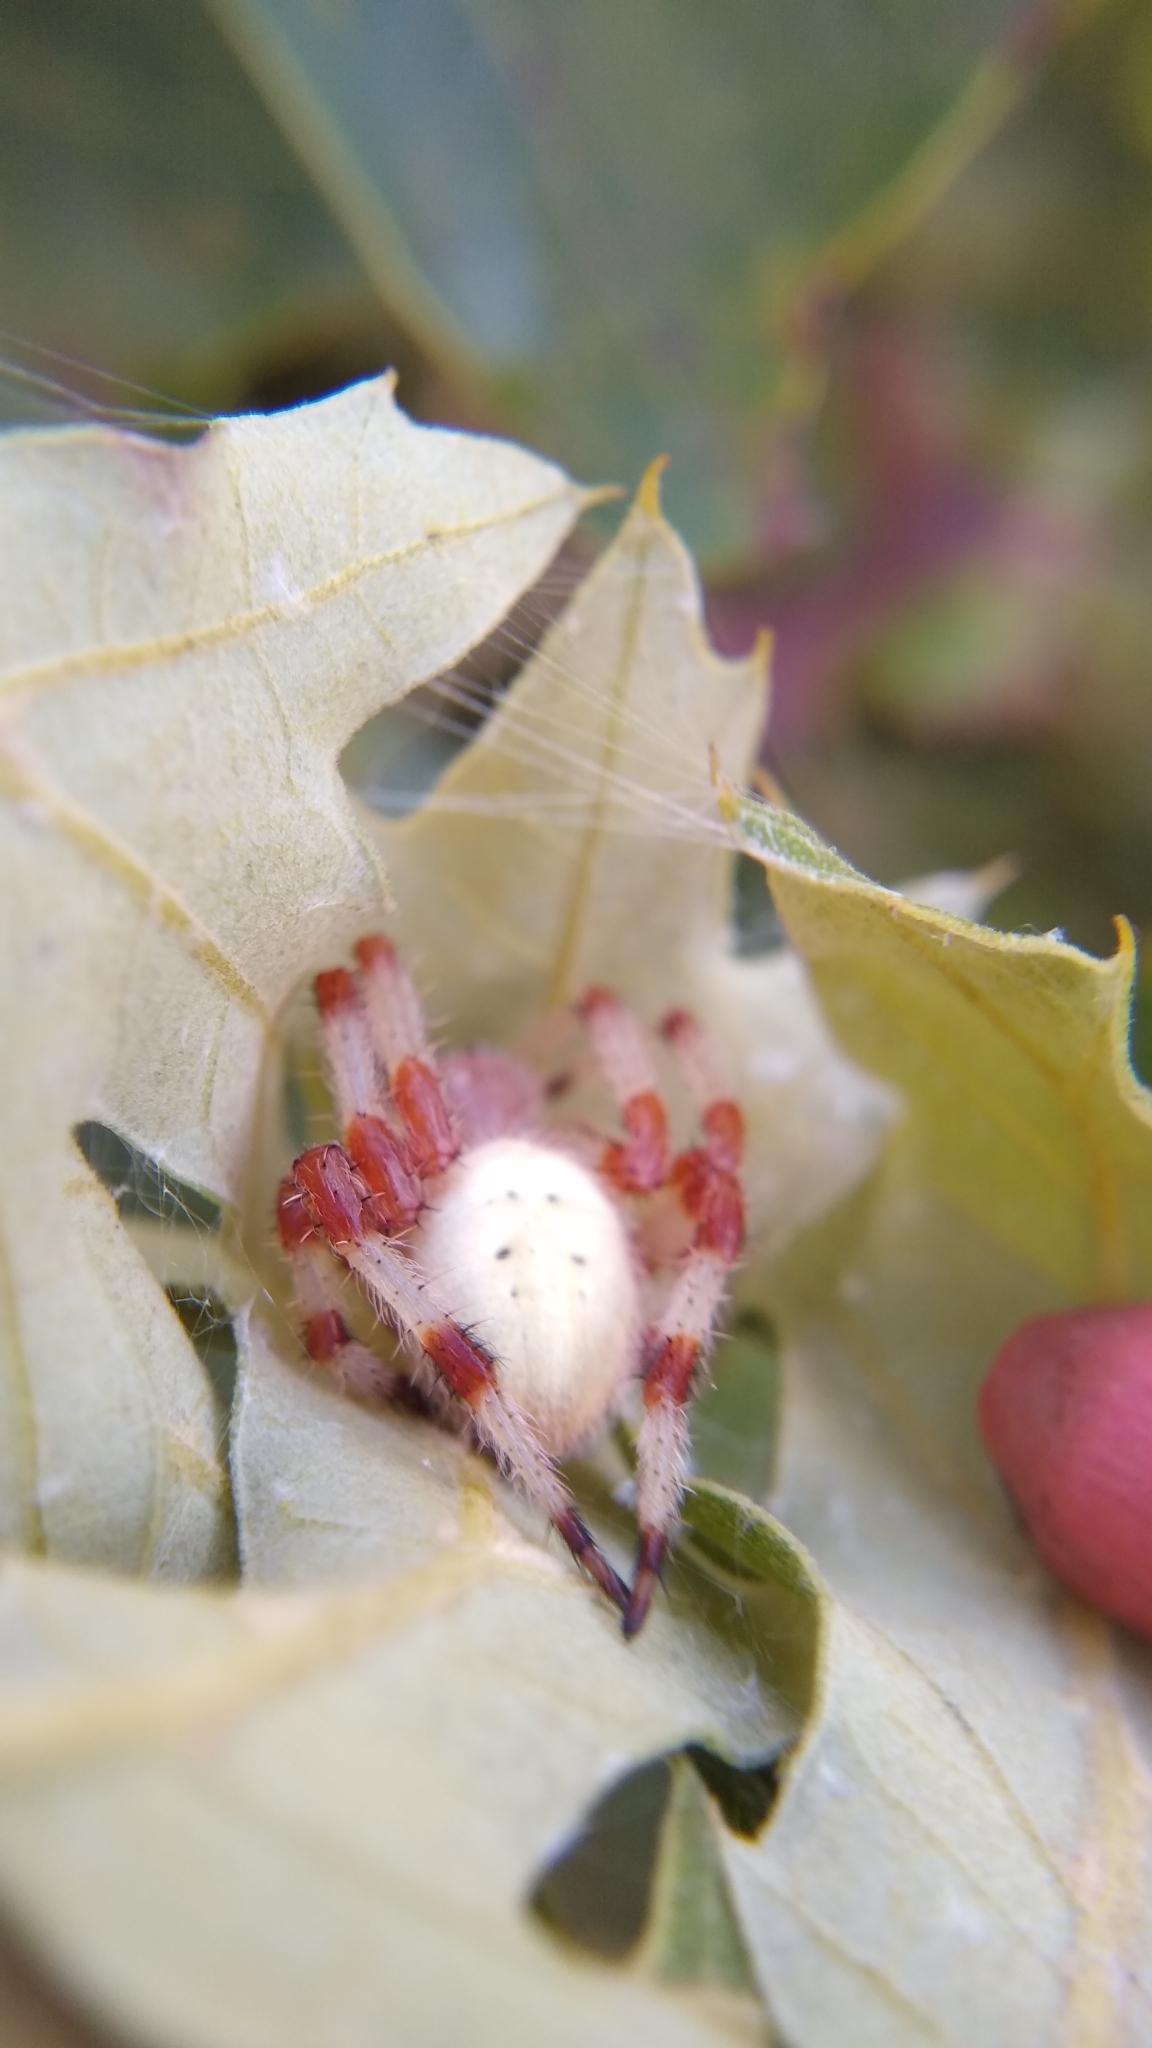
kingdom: Animalia
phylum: Arthropoda
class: Arachnida
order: Araneae
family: Araneidae
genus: Araneus
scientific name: Araneus trifolium
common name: Shamrock orbweaver
